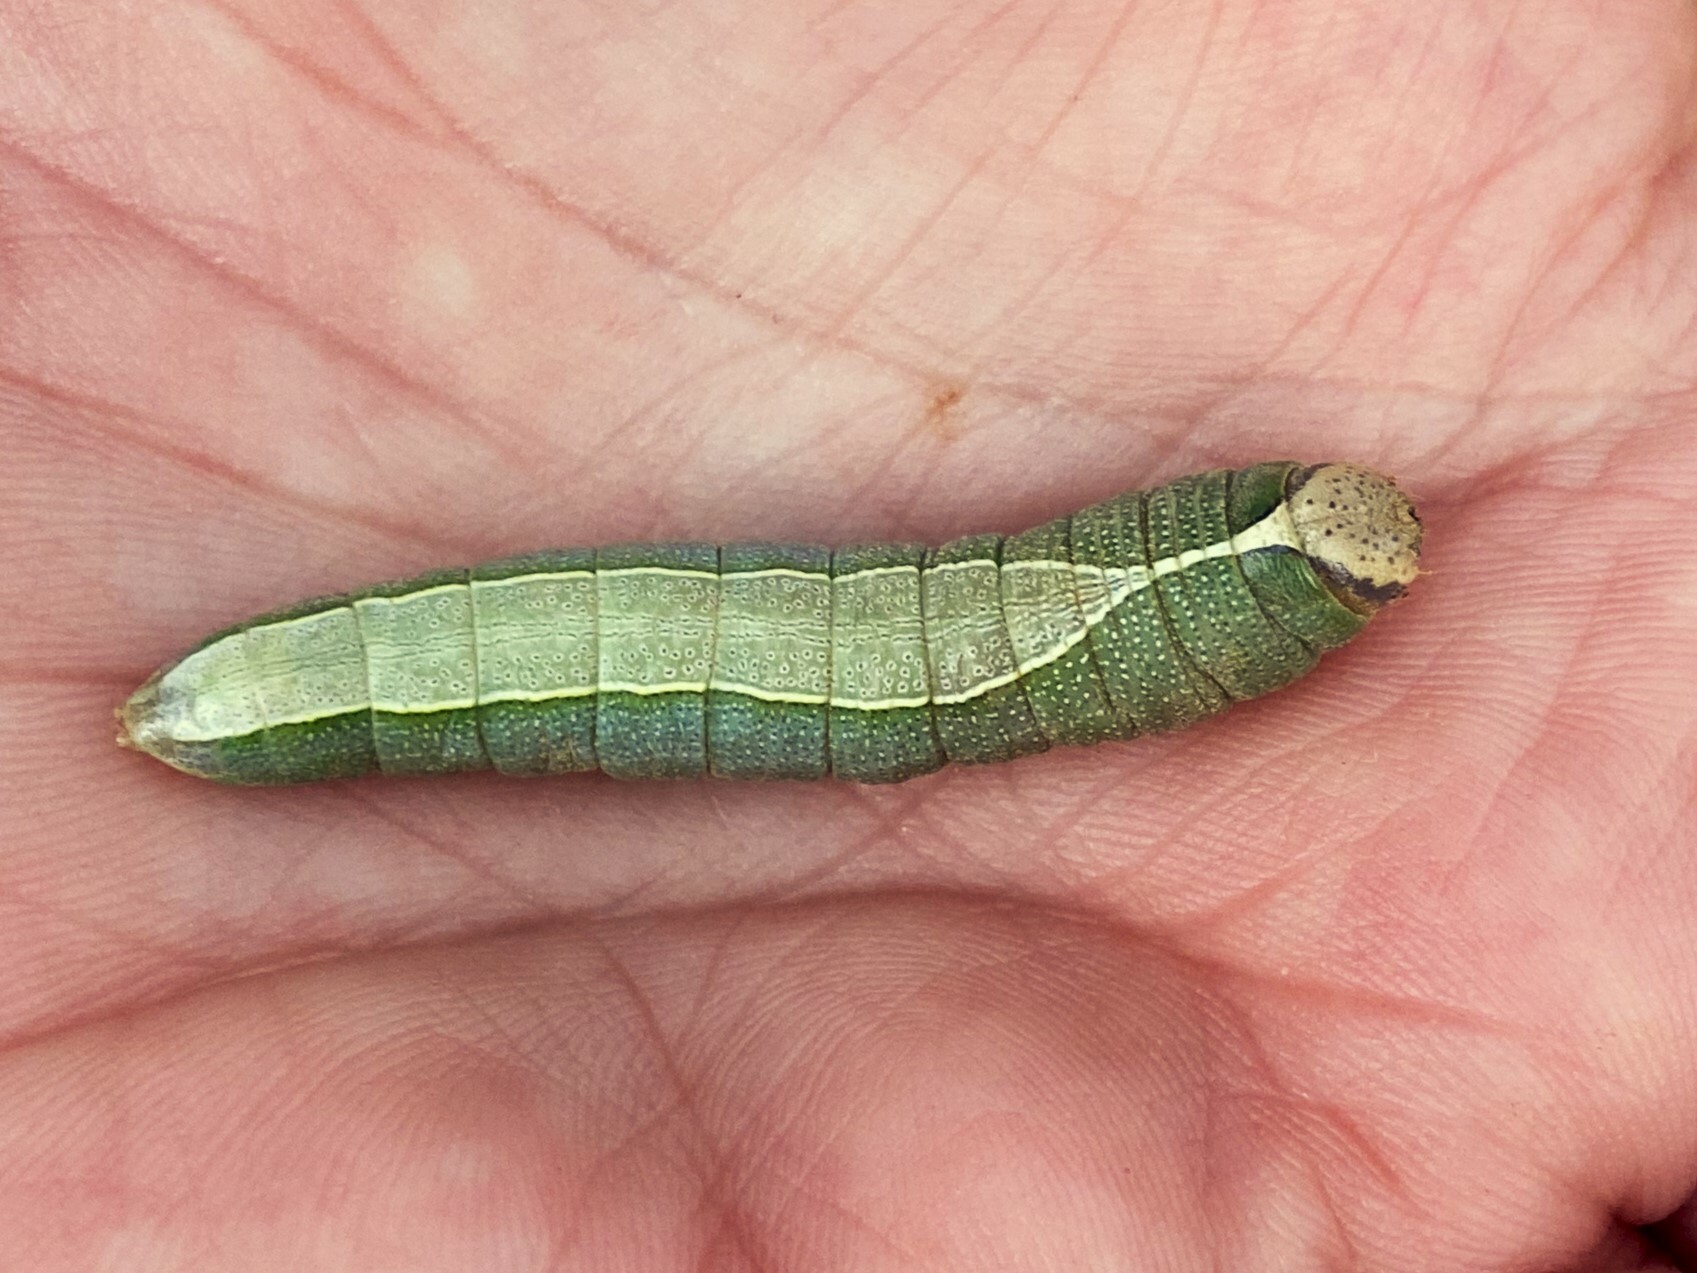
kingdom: Animalia
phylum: Arthropoda
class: Insecta
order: Lepidoptera
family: Notodontidae
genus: Heterocampa
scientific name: Heterocampa astartoides
